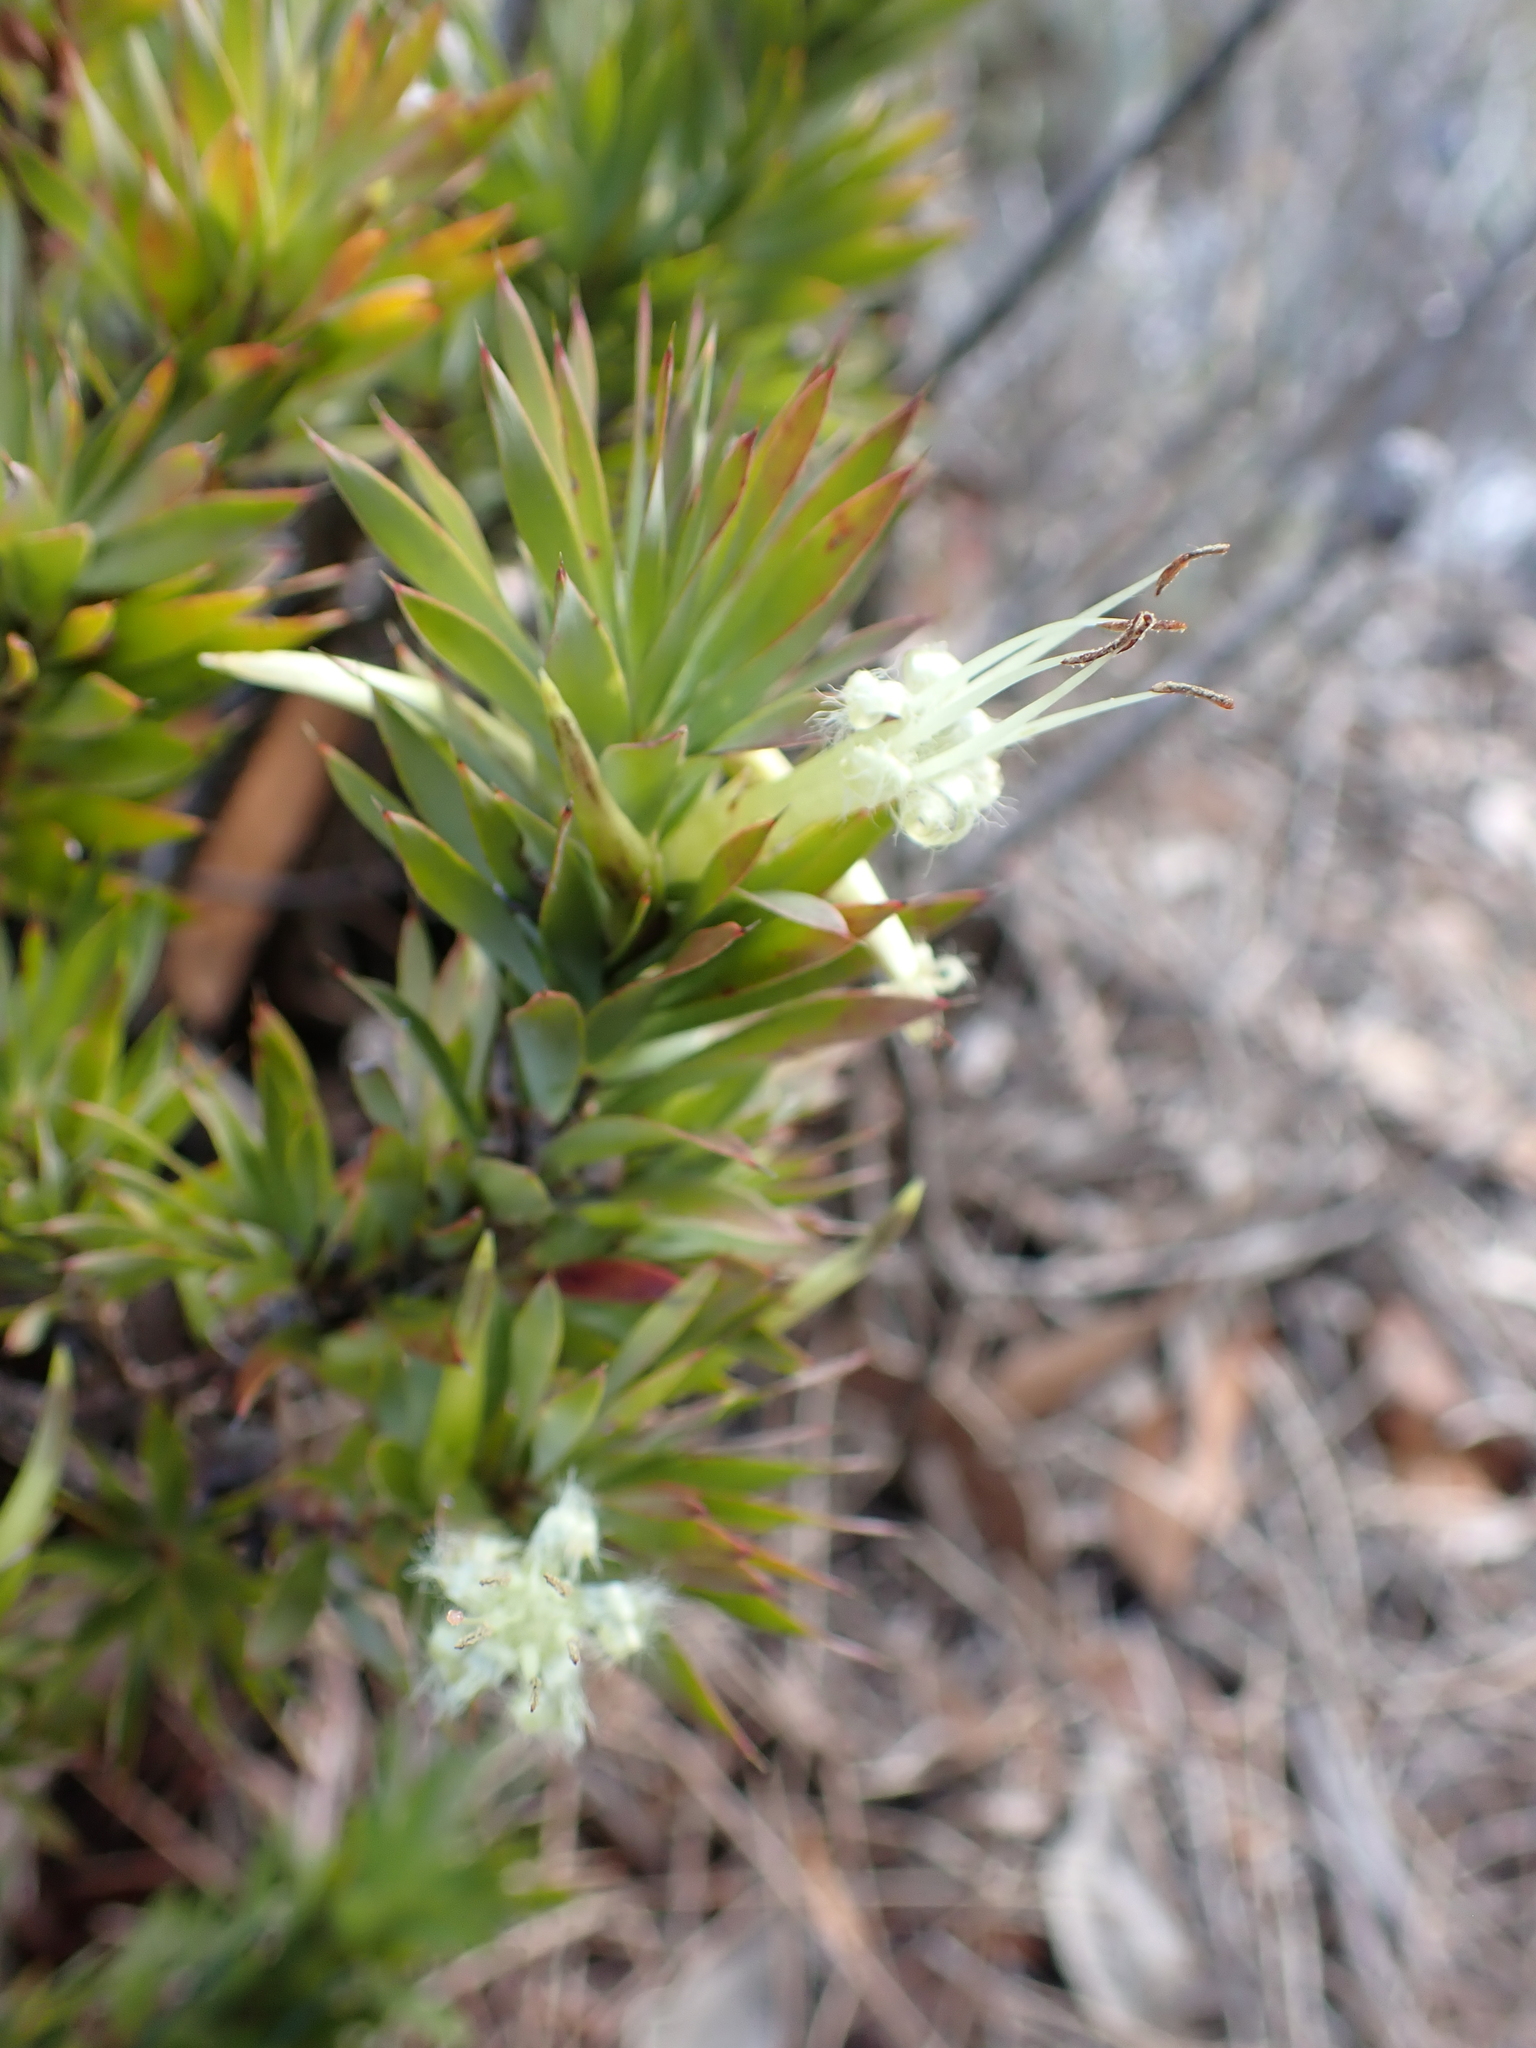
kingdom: Plantae
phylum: Tracheophyta
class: Magnoliopsida
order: Ericales
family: Ericaceae
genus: Styphelia
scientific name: Styphelia adscendens
